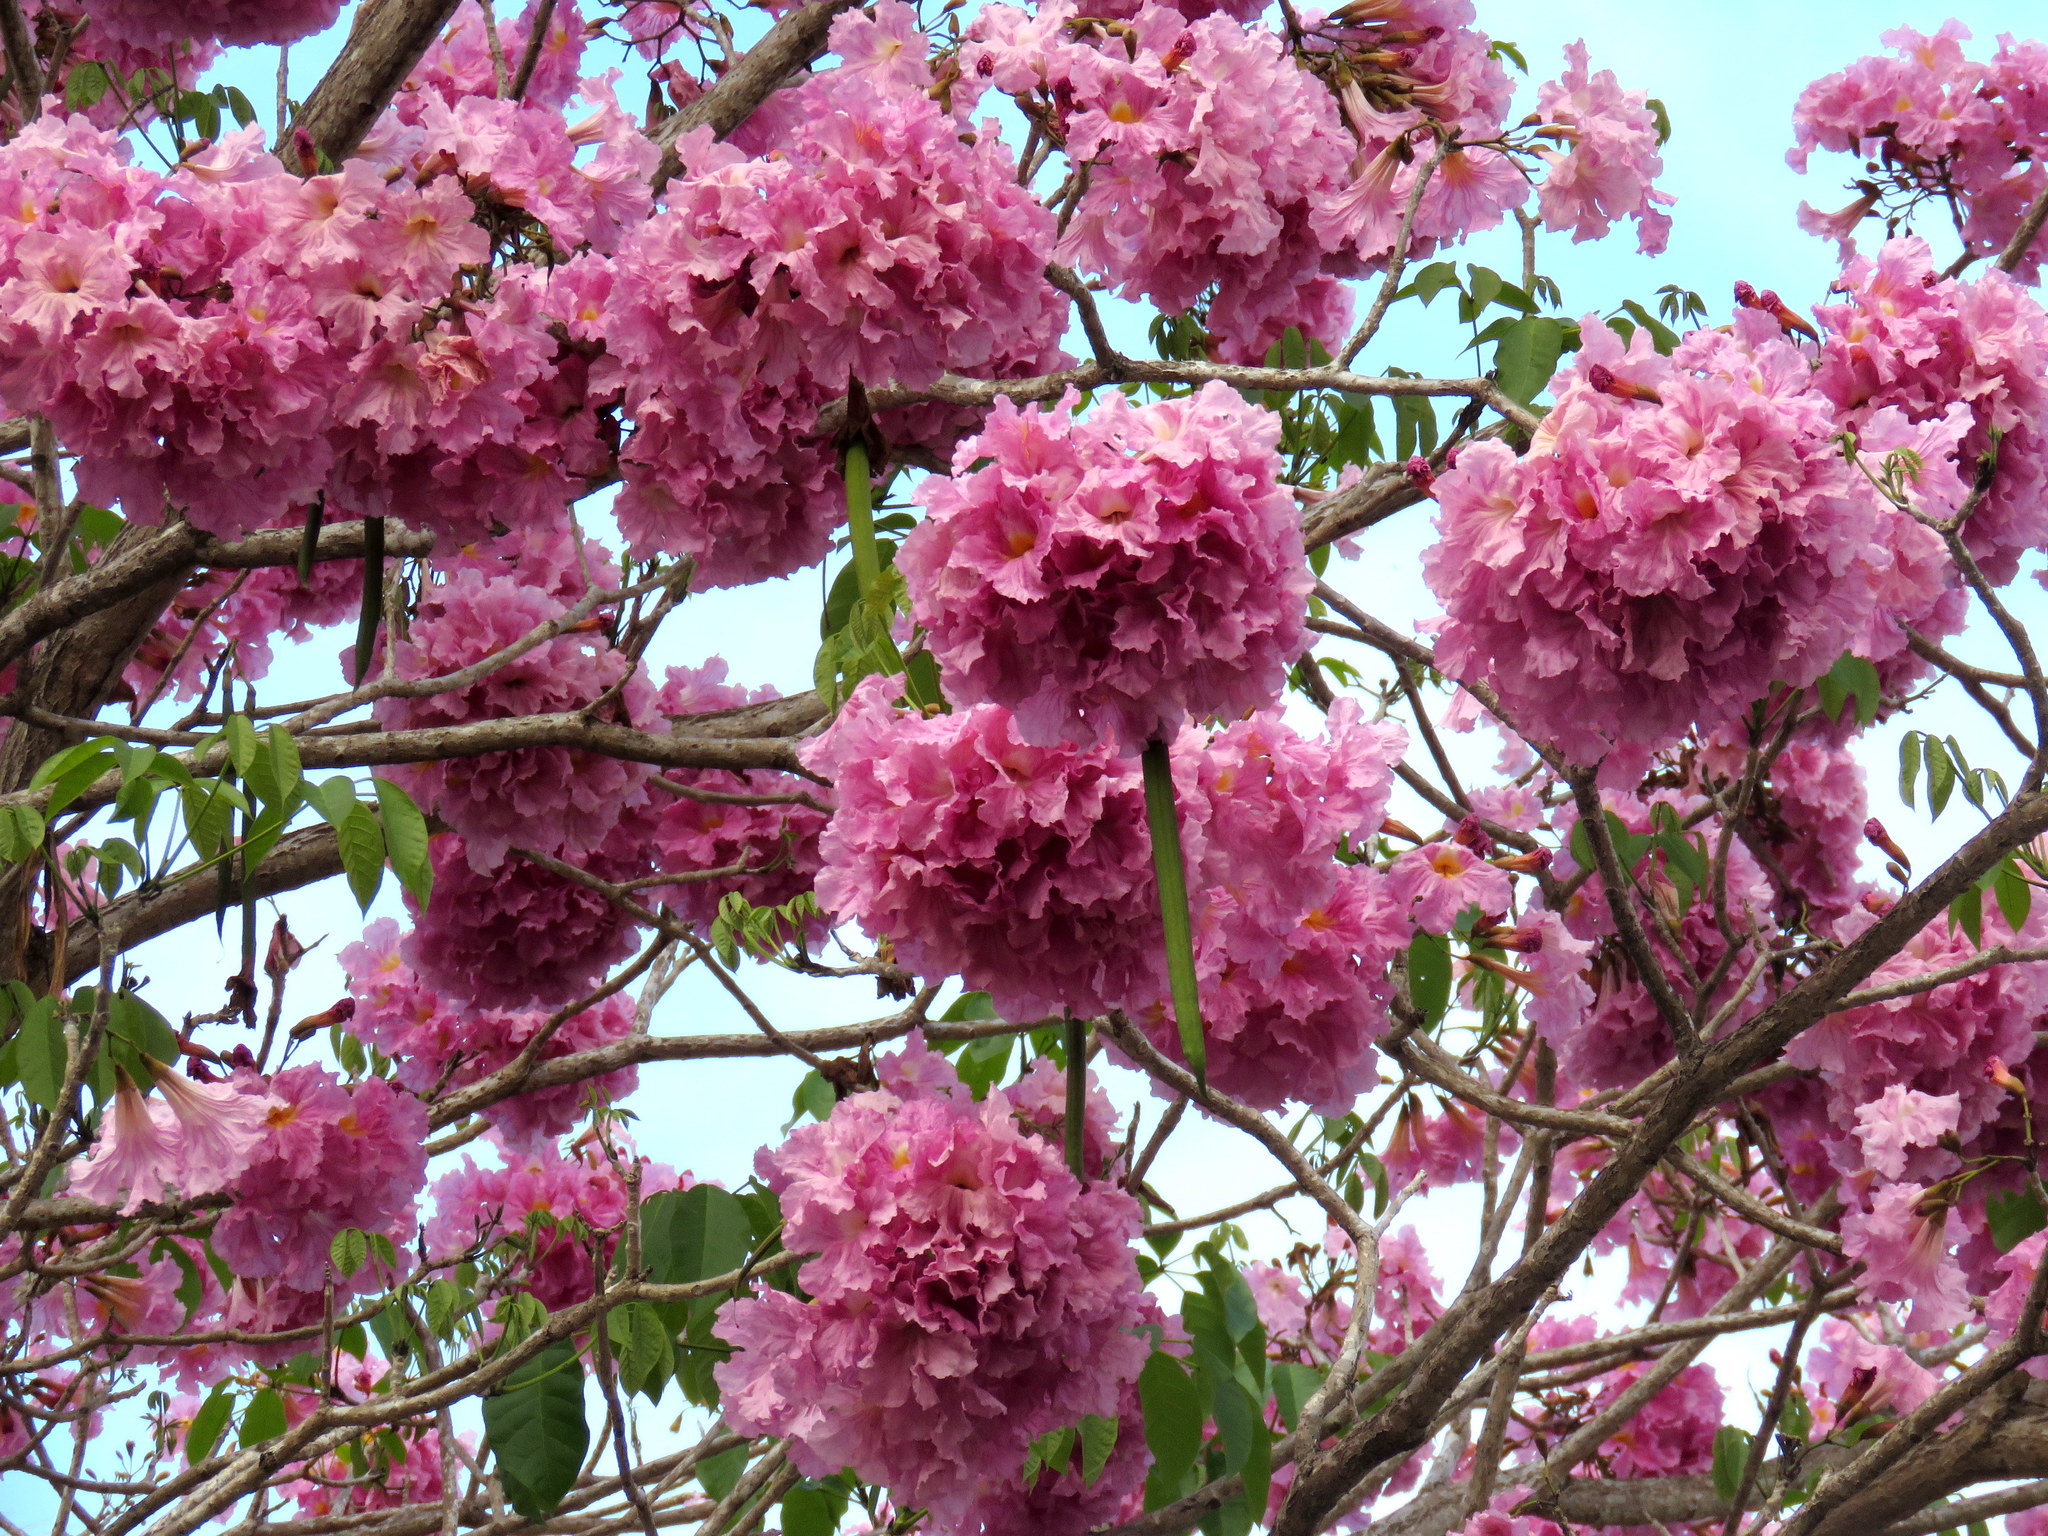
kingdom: Plantae
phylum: Tracheophyta
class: Magnoliopsida
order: Lamiales
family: Bignoniaceae
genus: Tabebuia
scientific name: Tabebuia rosea
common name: Pink poui
